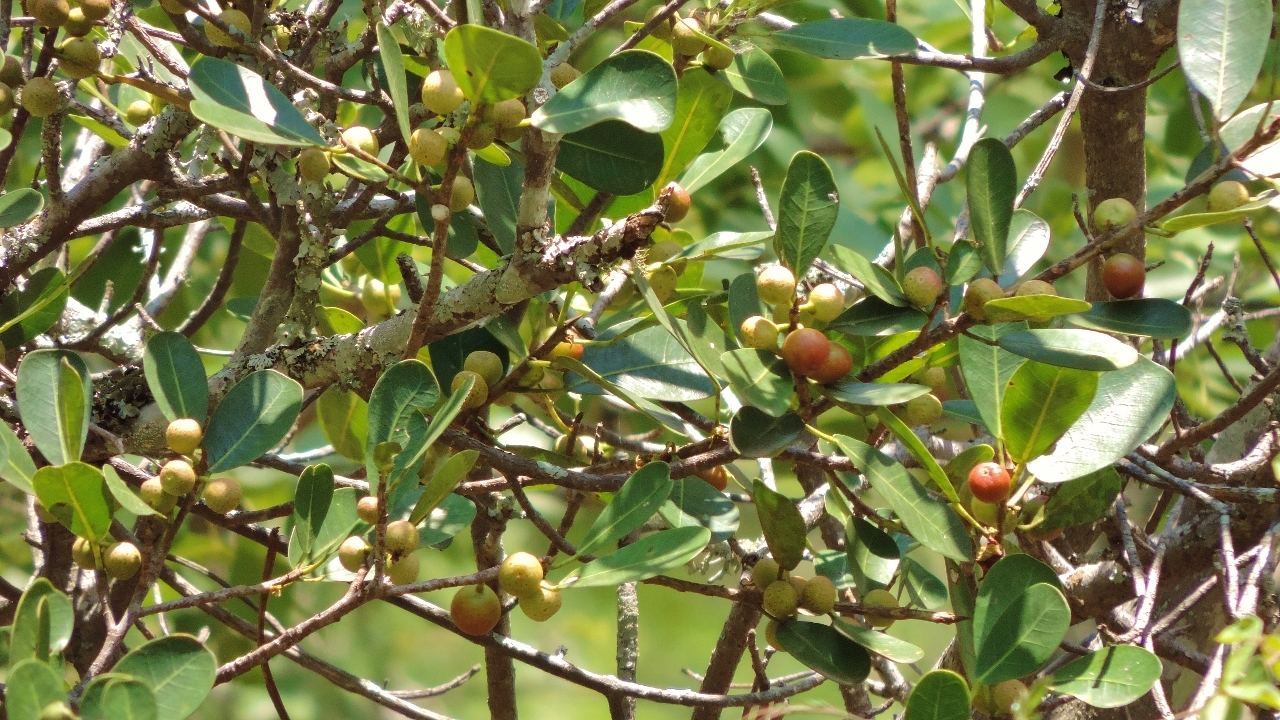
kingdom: Plantae
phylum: Tracheophyta
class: Magnoliopsida
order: Rosales
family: Moraceae
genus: Ficus
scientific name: Ficus natalensis
